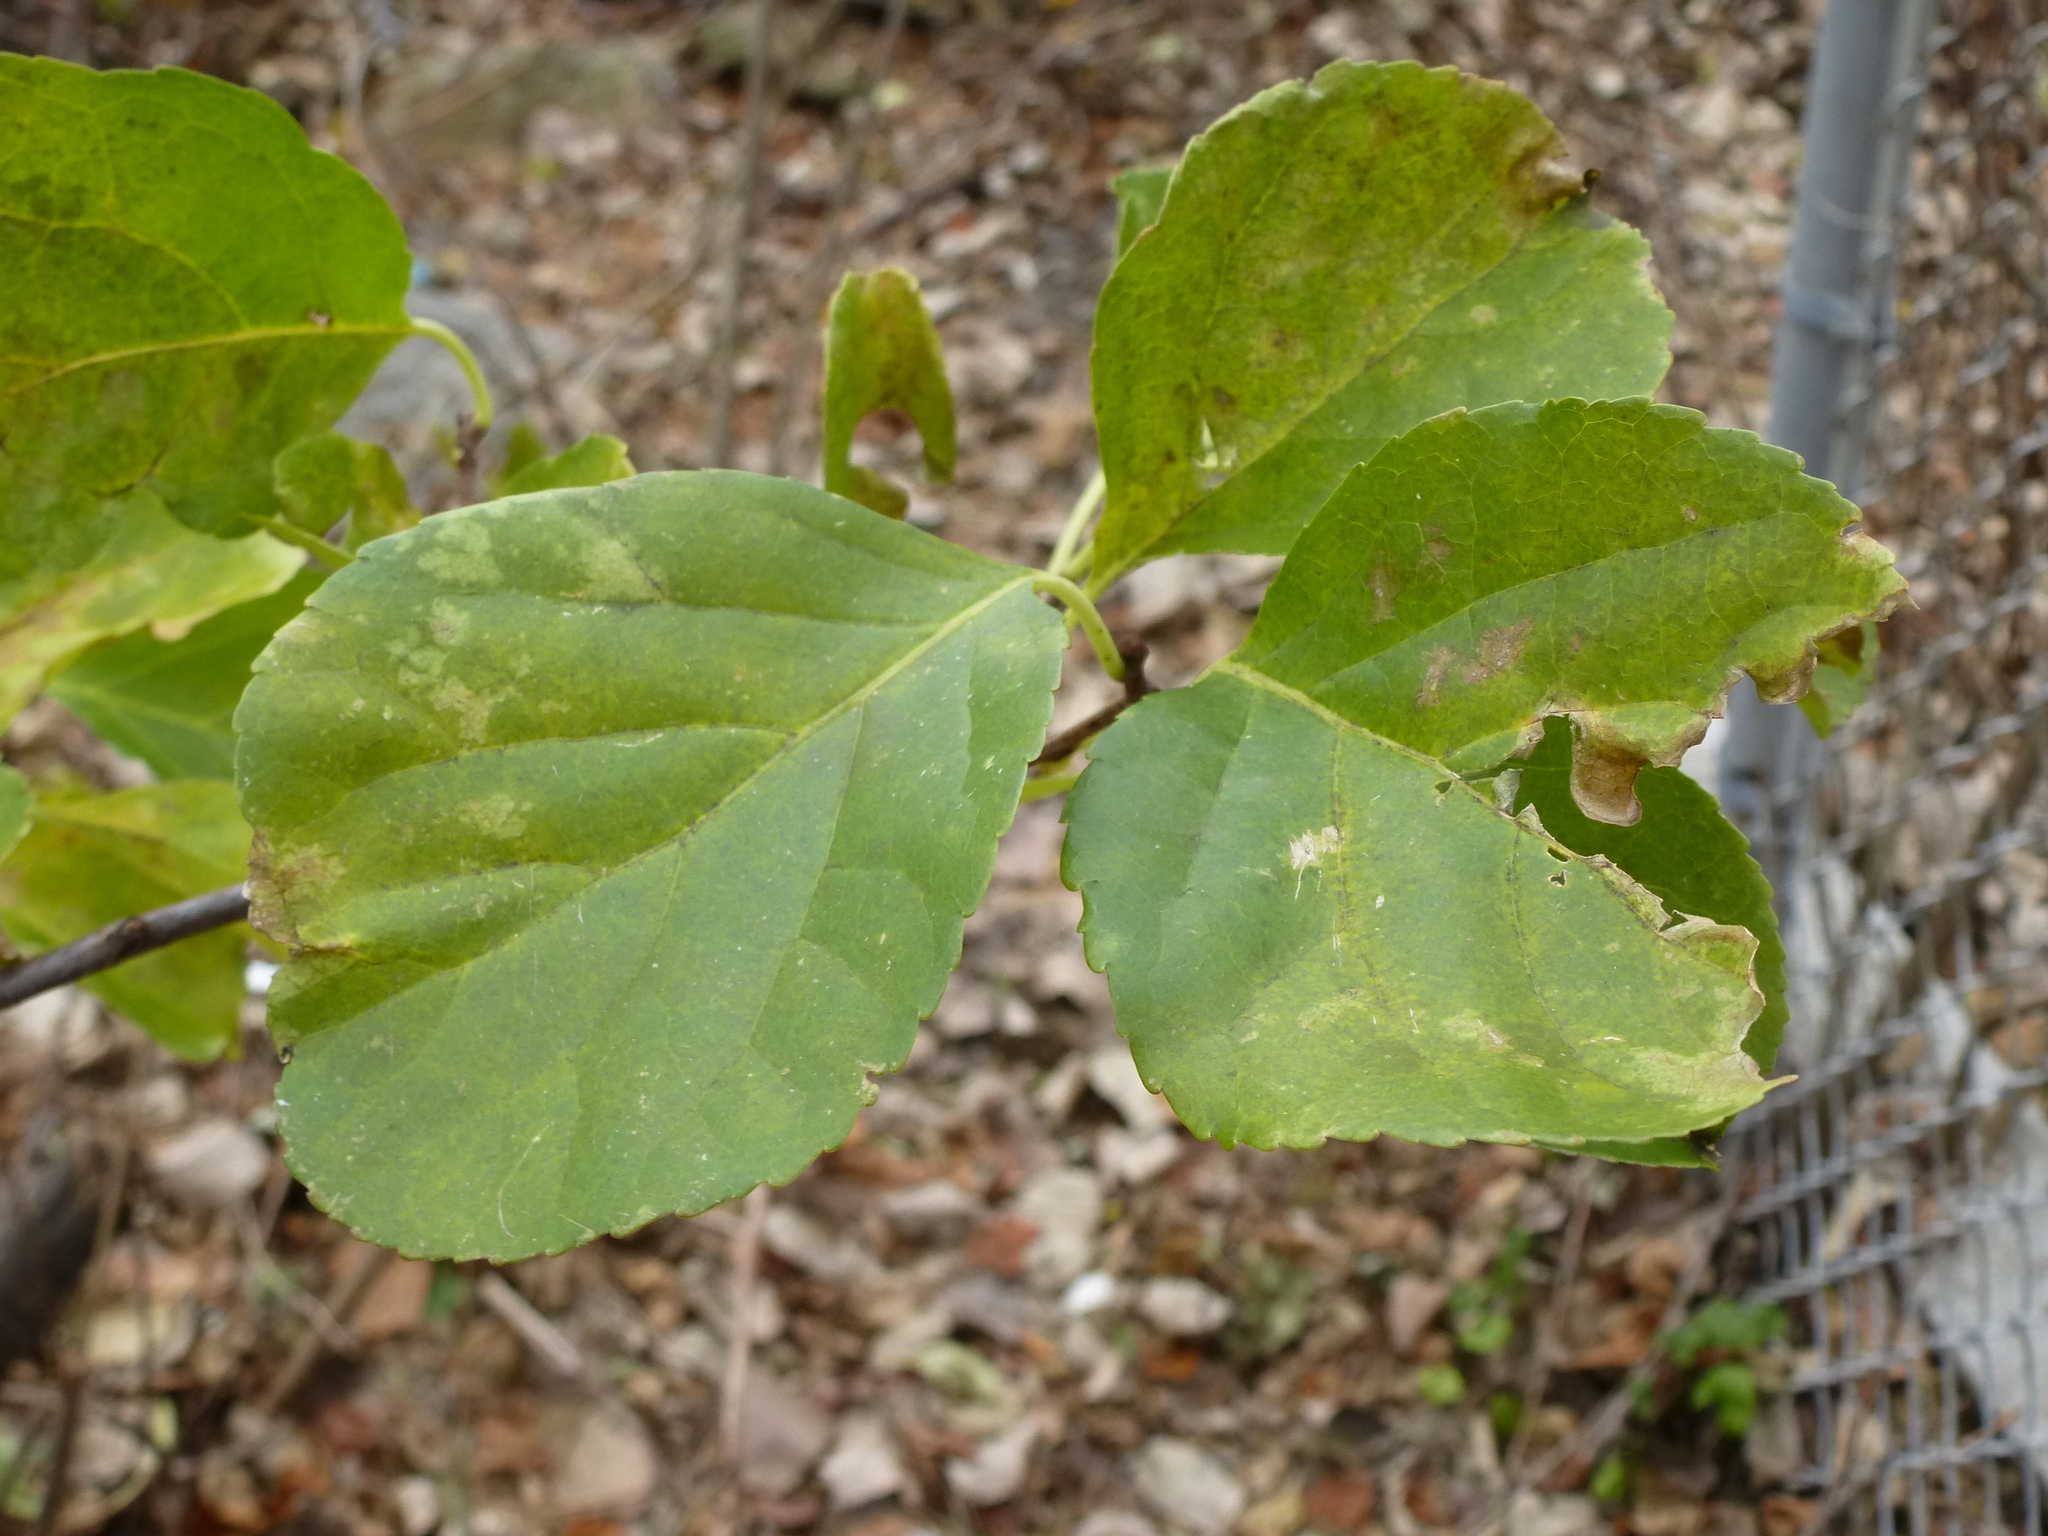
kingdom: Plantae
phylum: Tracheophyta
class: Magnoliopsida
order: Celastrales
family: Celastraceae
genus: Celastrus
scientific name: Celastrus orbiculatus
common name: Oriental bittersweet
